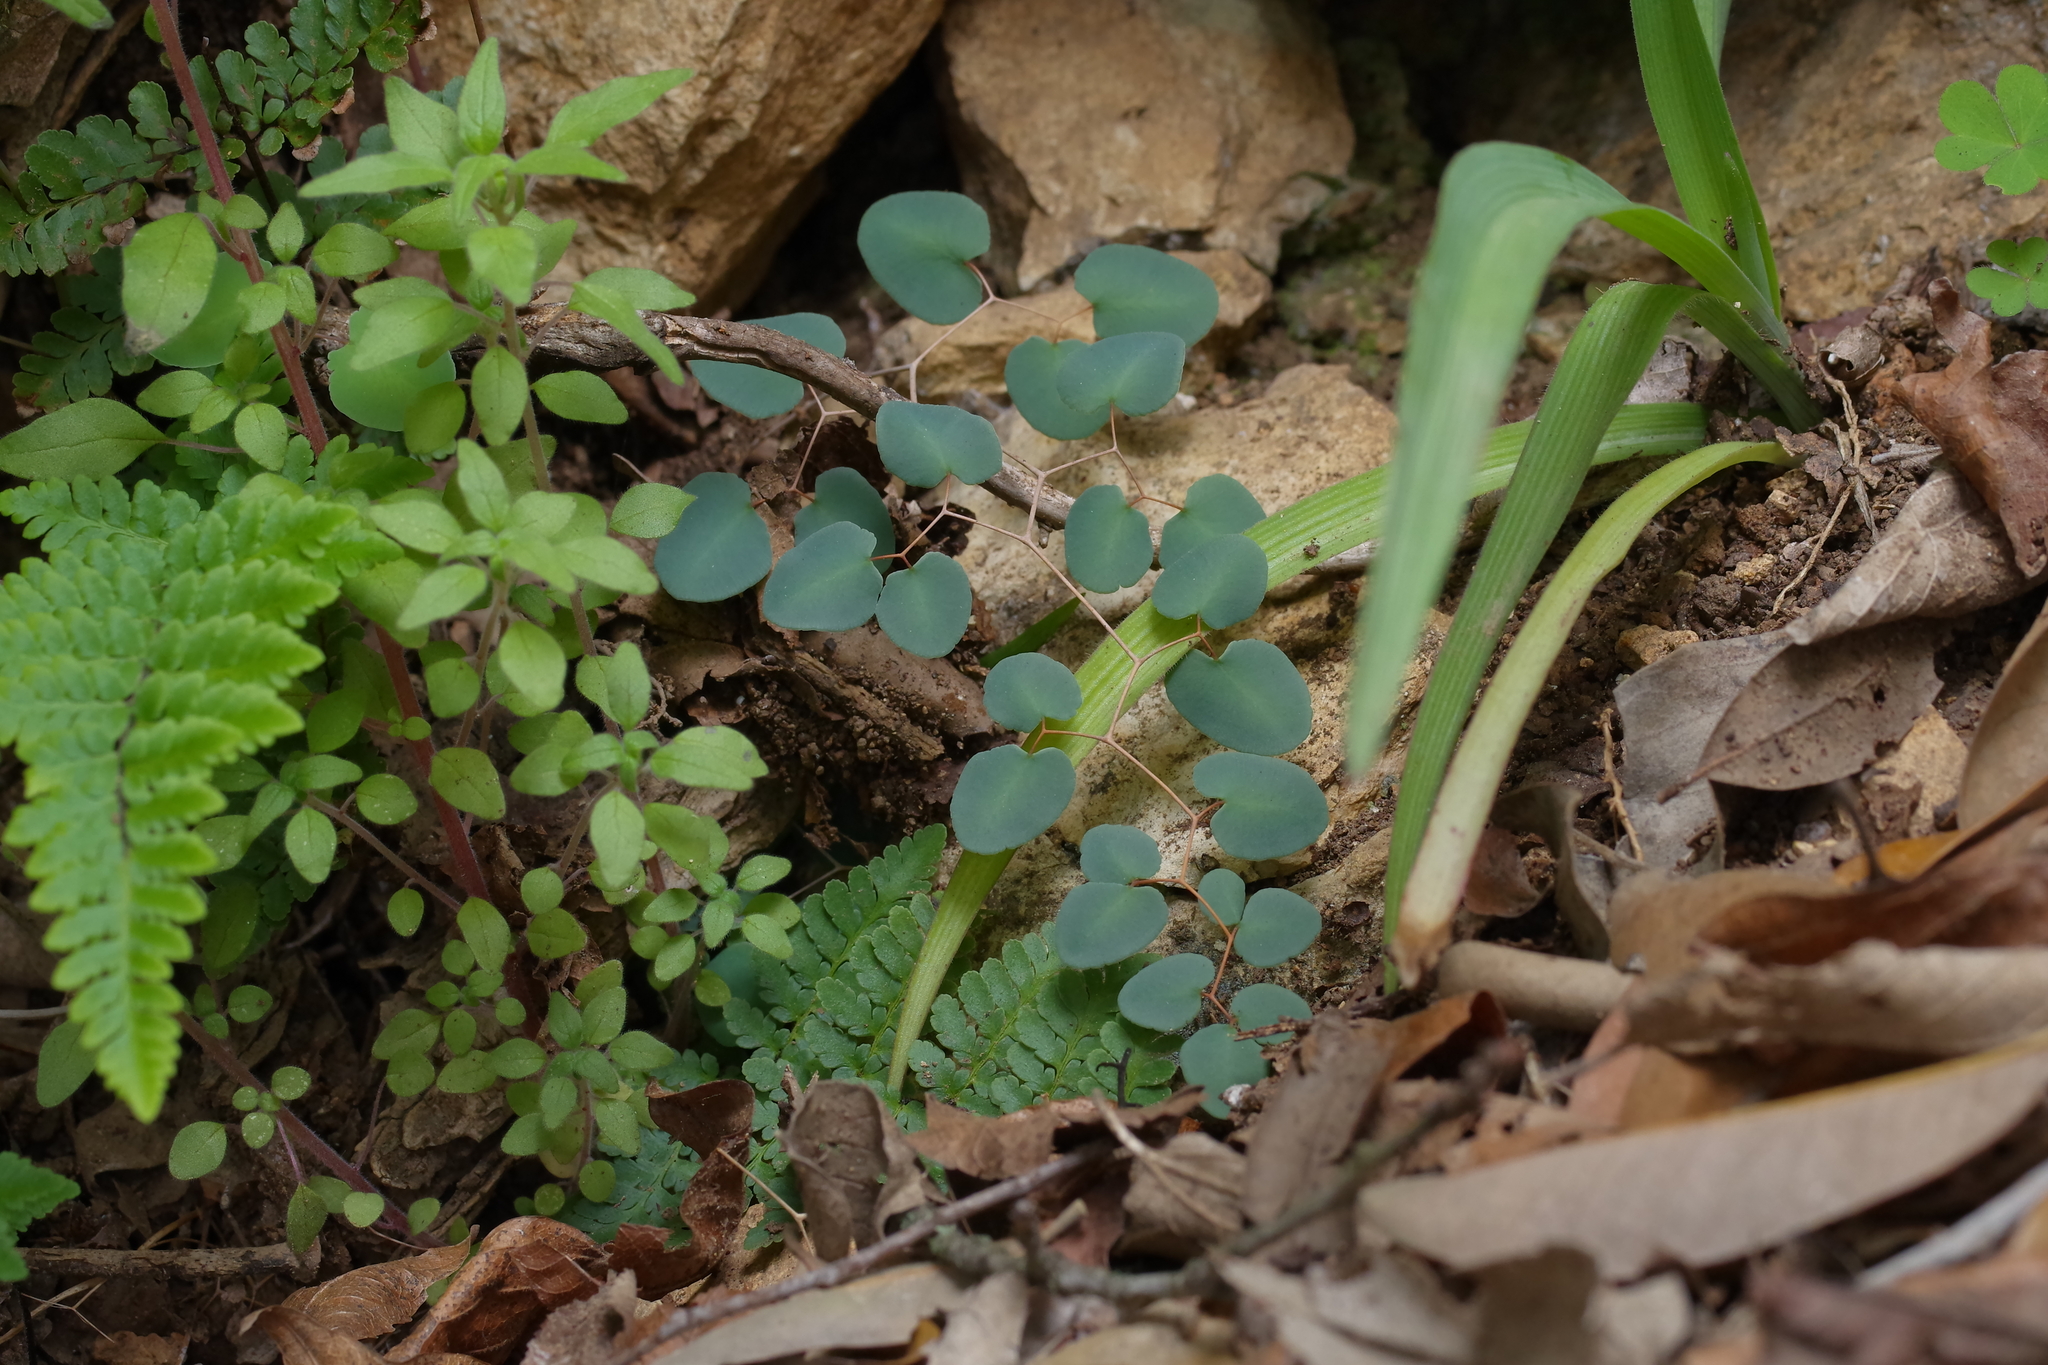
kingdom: Plantae
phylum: Tracheophyta
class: Polypodiopsida
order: Polypodiales
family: Pteridaceae
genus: Pellaea
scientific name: Pellaea ovata
